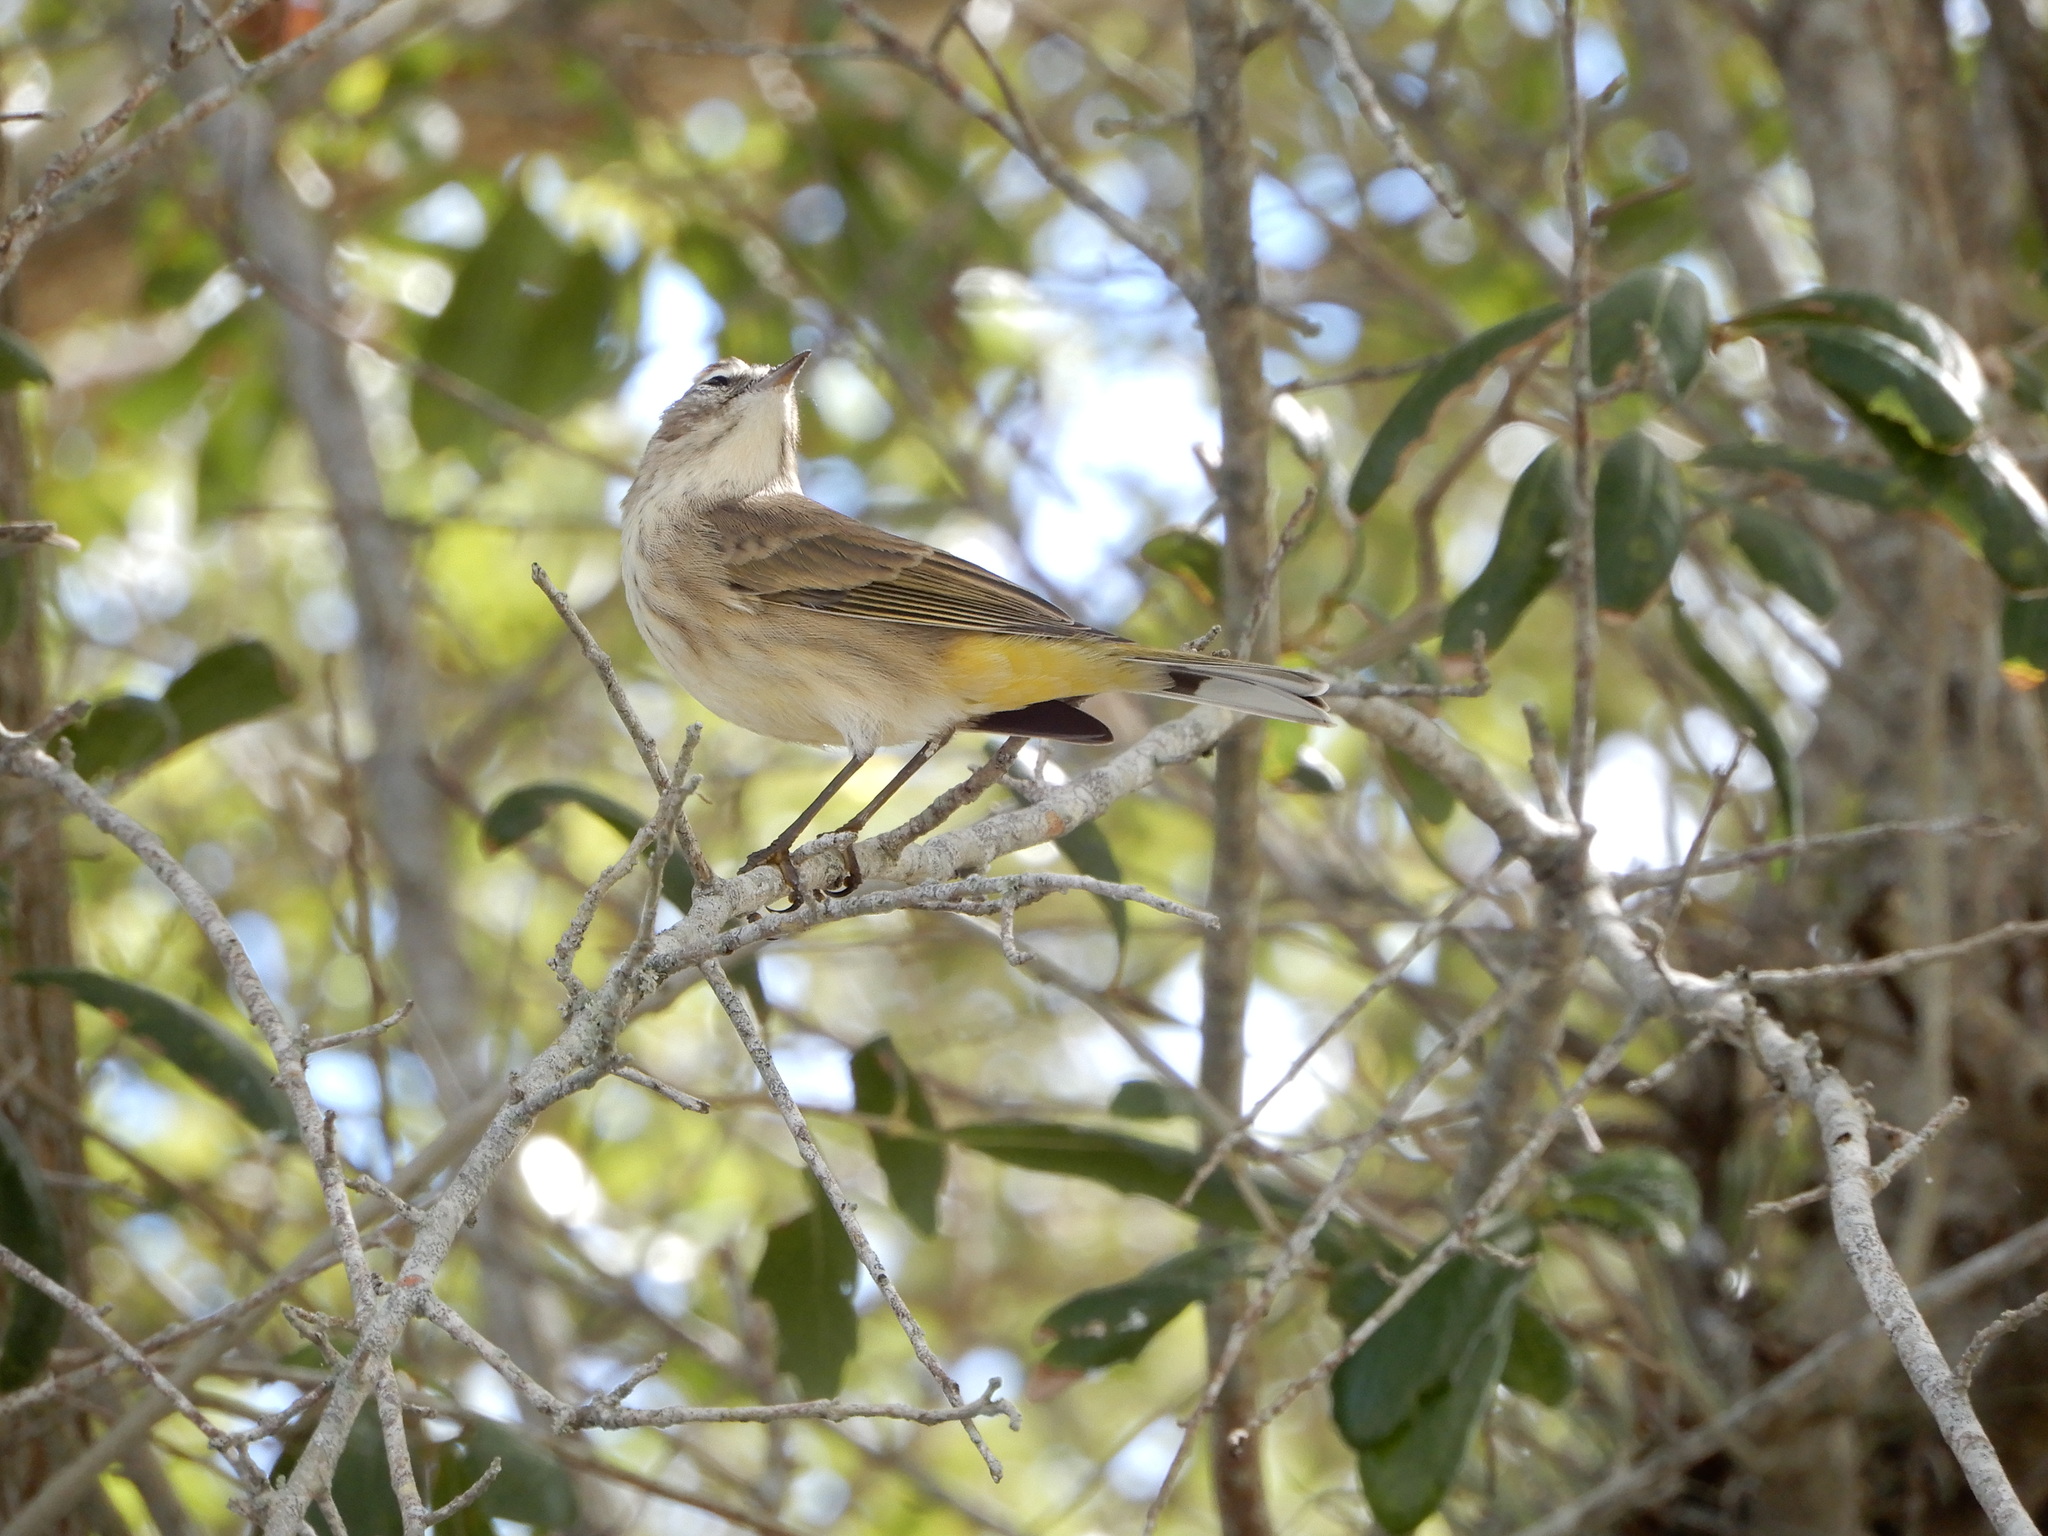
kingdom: Animalia
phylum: Chordata
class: Aves
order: Passeriformes
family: Parulidae
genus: Setophaga
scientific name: Setophaga palmarum
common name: Palm warbler
